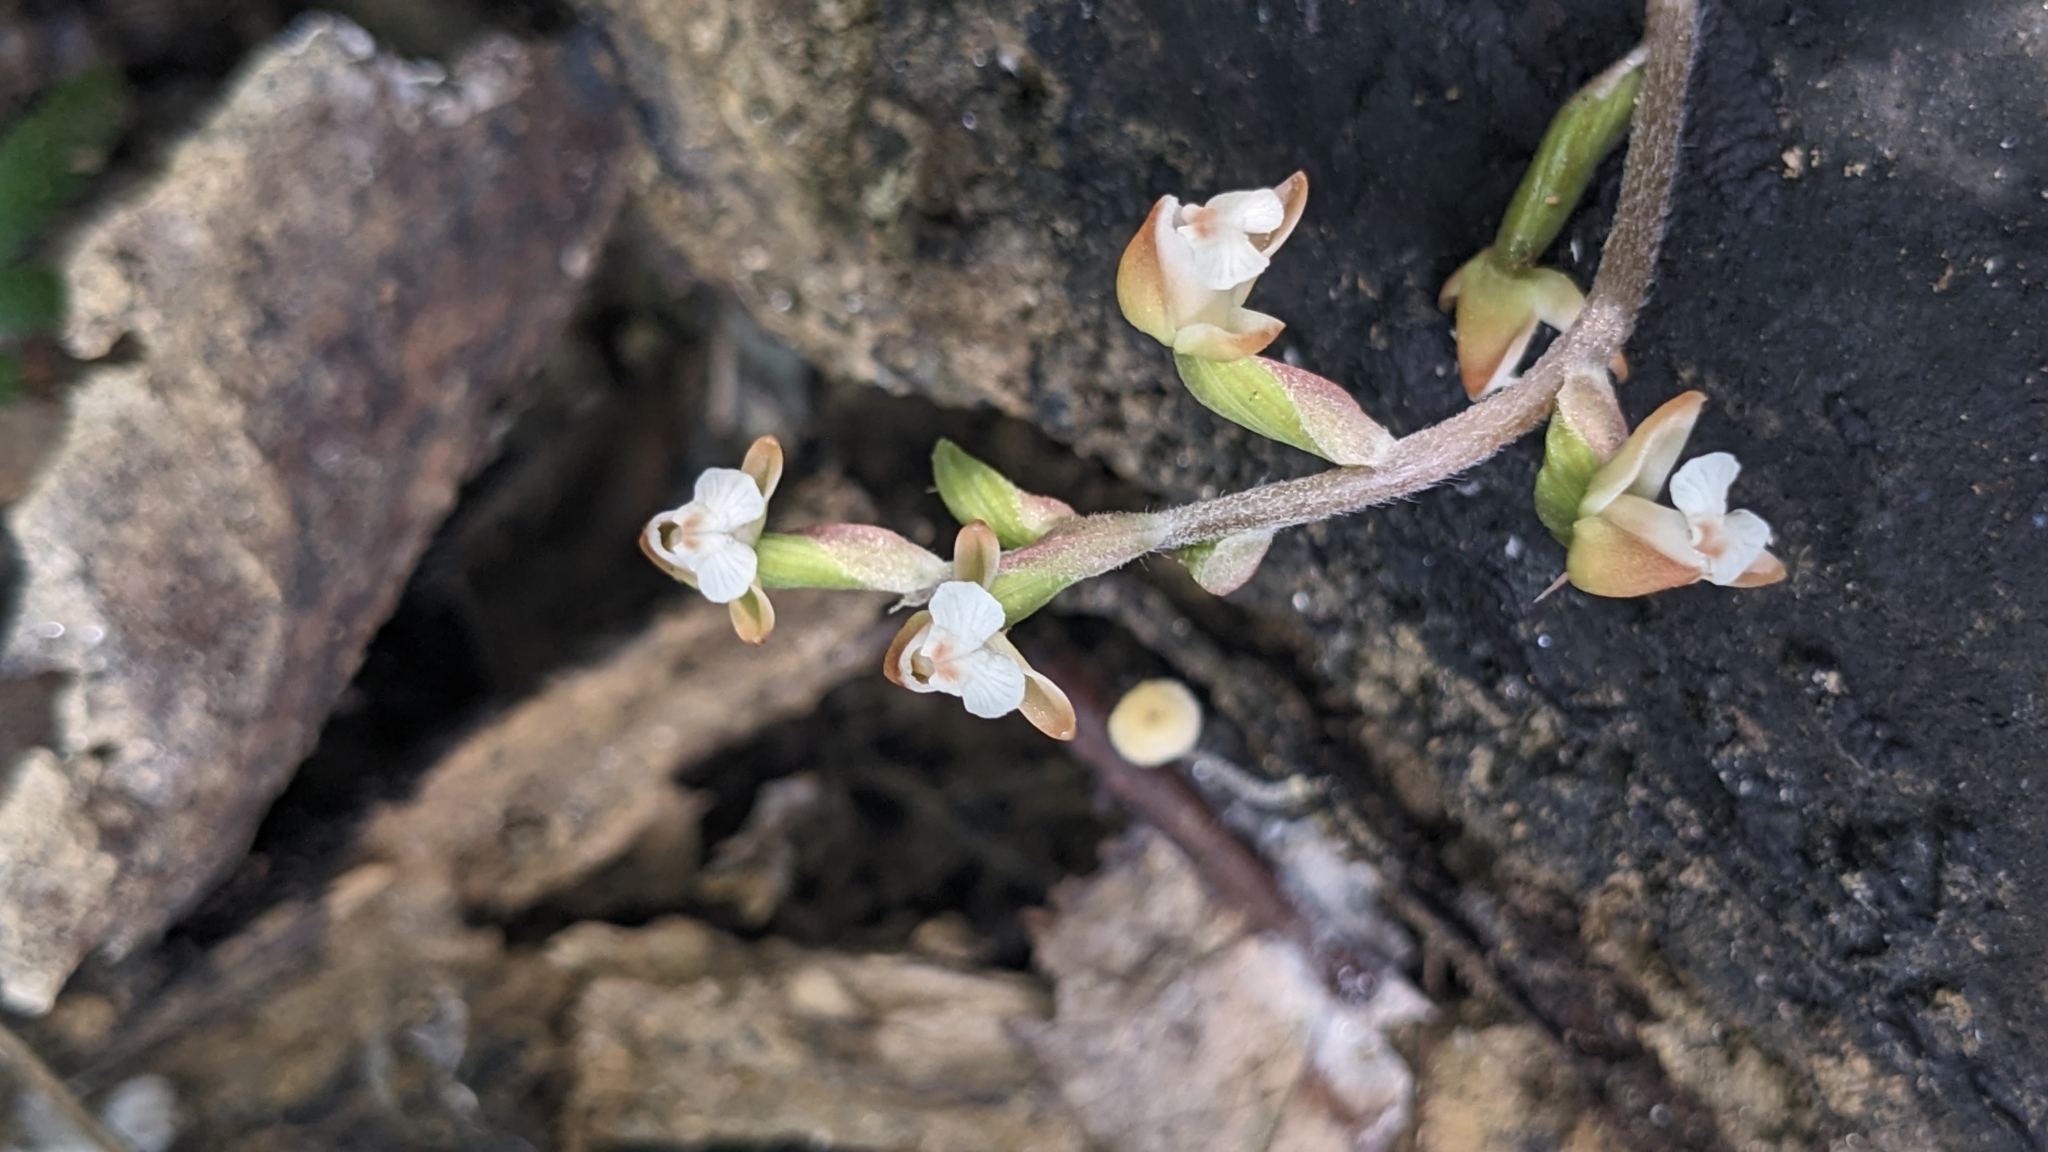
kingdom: Plantae
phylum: Tracheophyta
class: Liliopsida
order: Asparagales
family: Orchidaceae
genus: Zeuxine
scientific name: Zeuxine nervosa
